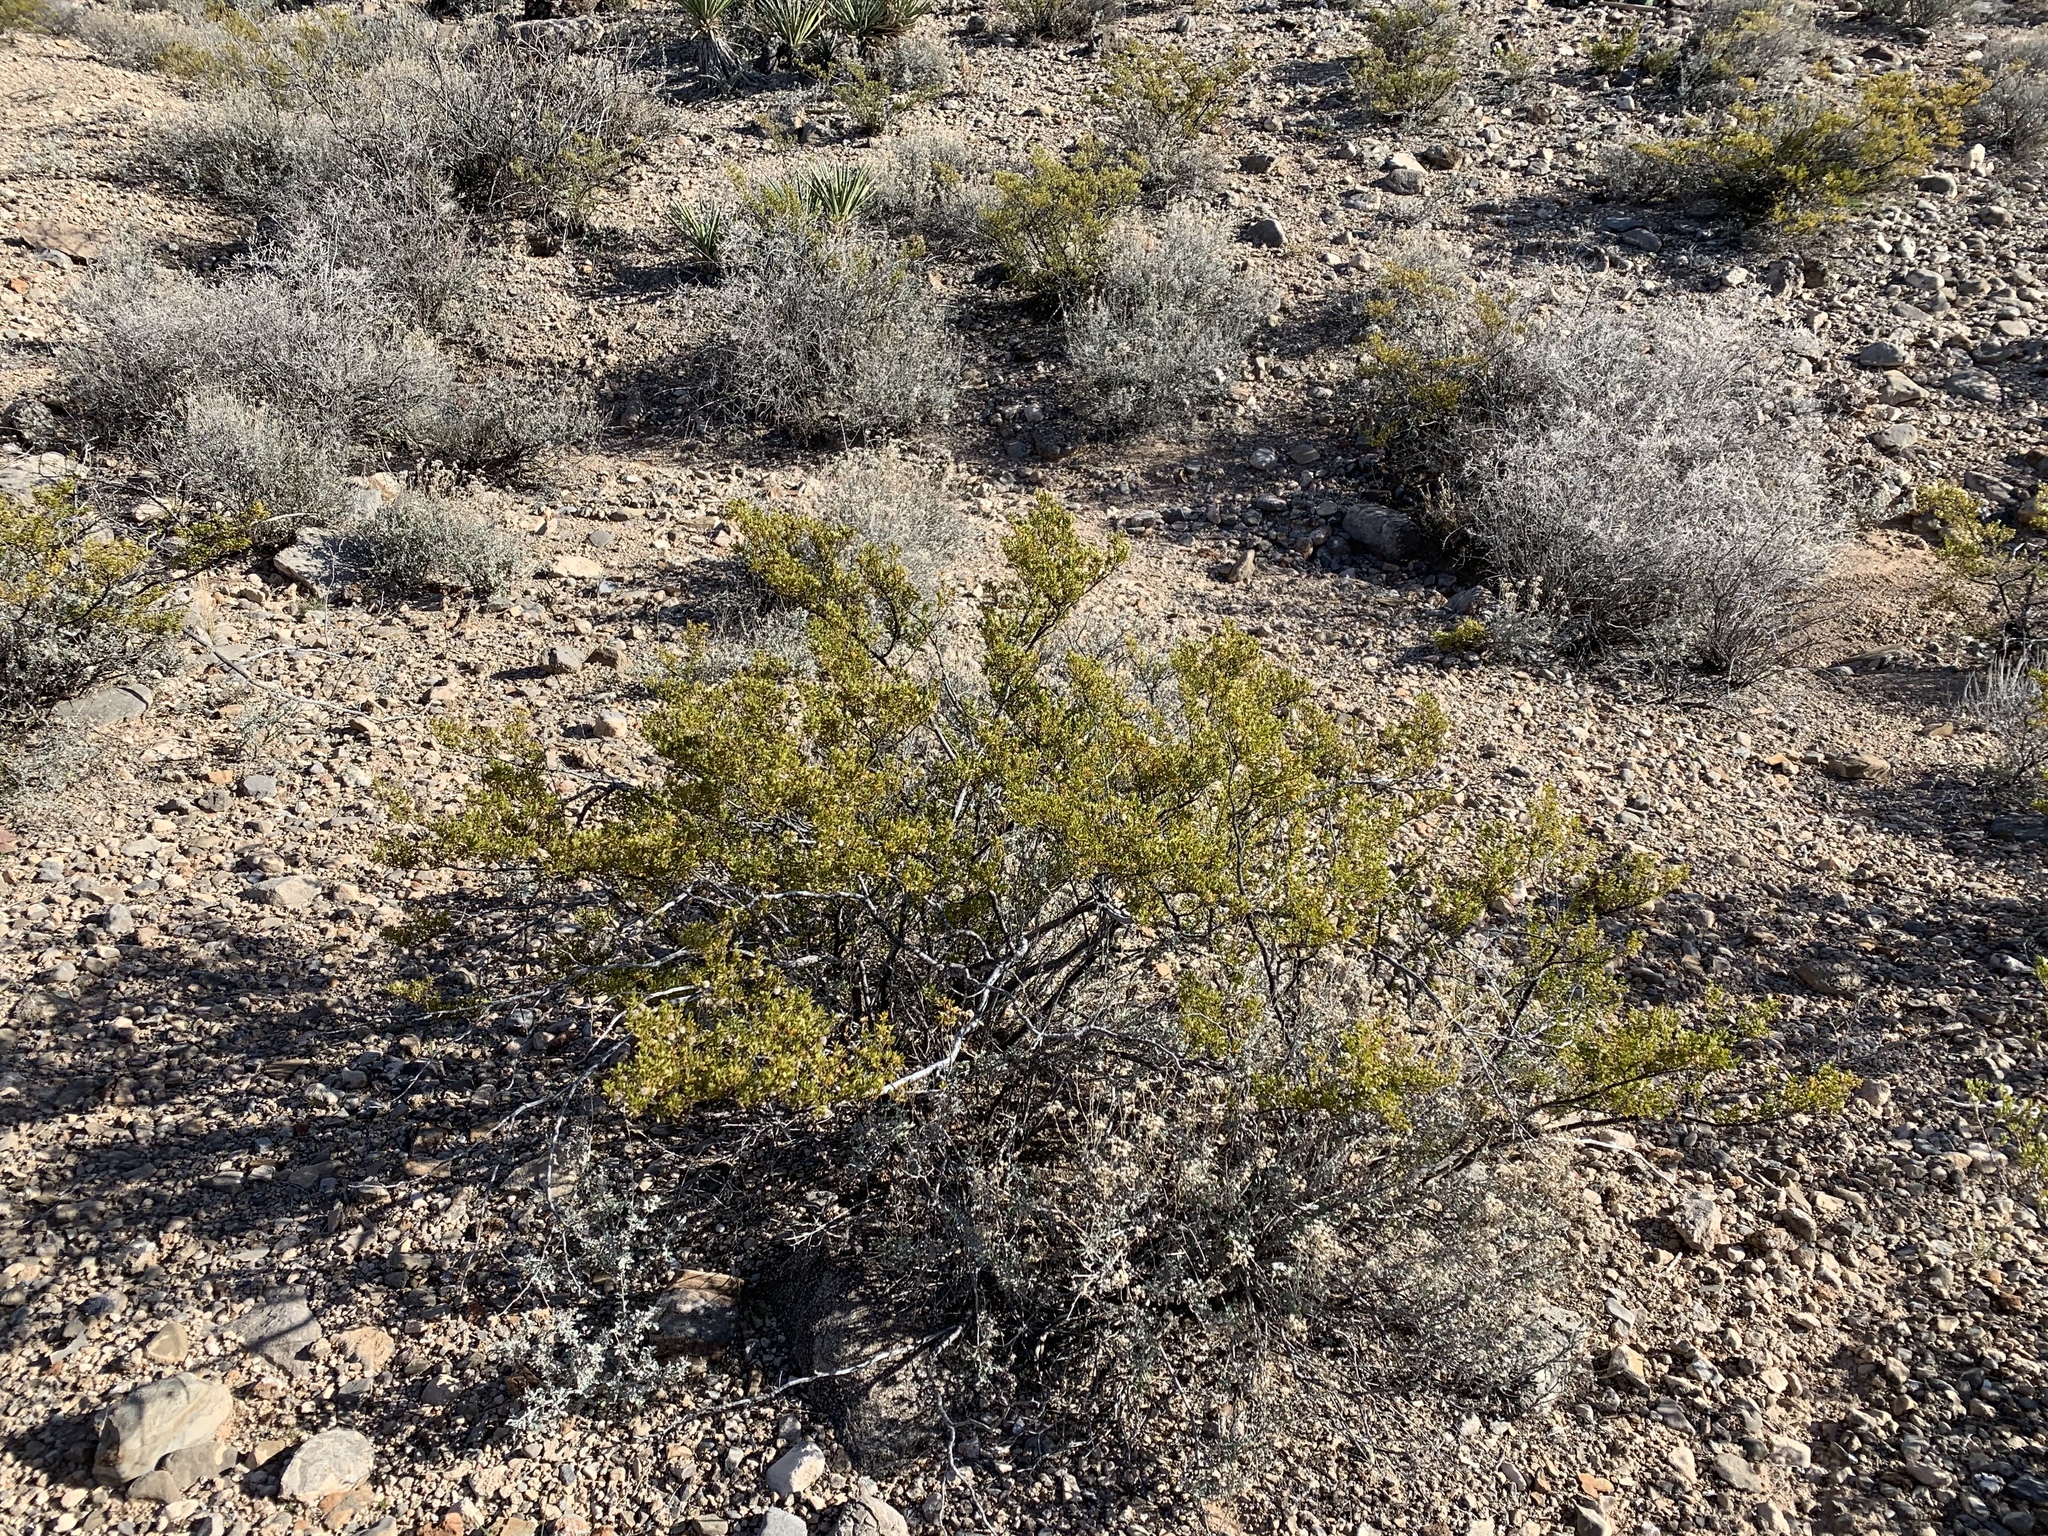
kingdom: Plantae
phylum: Tracheophyta
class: Magnoliopsida
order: Zygophyllales
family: Zygophyllaceae
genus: Larrea
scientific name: Larrea tridentata
